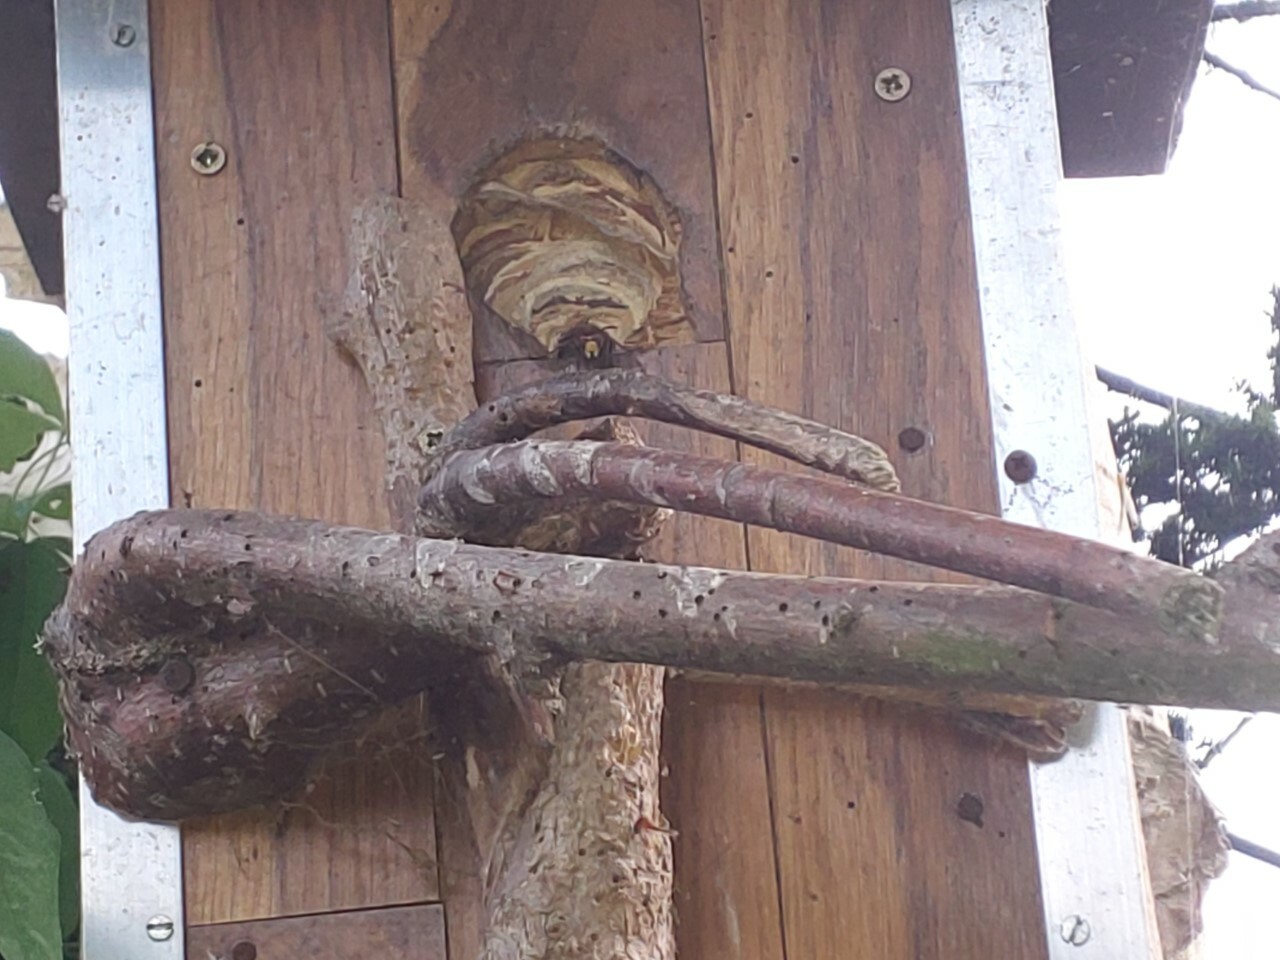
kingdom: Animalia
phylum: Arthropoda
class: Insecta
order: Hymenoptera
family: Vespidae
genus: Vespa
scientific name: Vespa crabro
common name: Hornet
